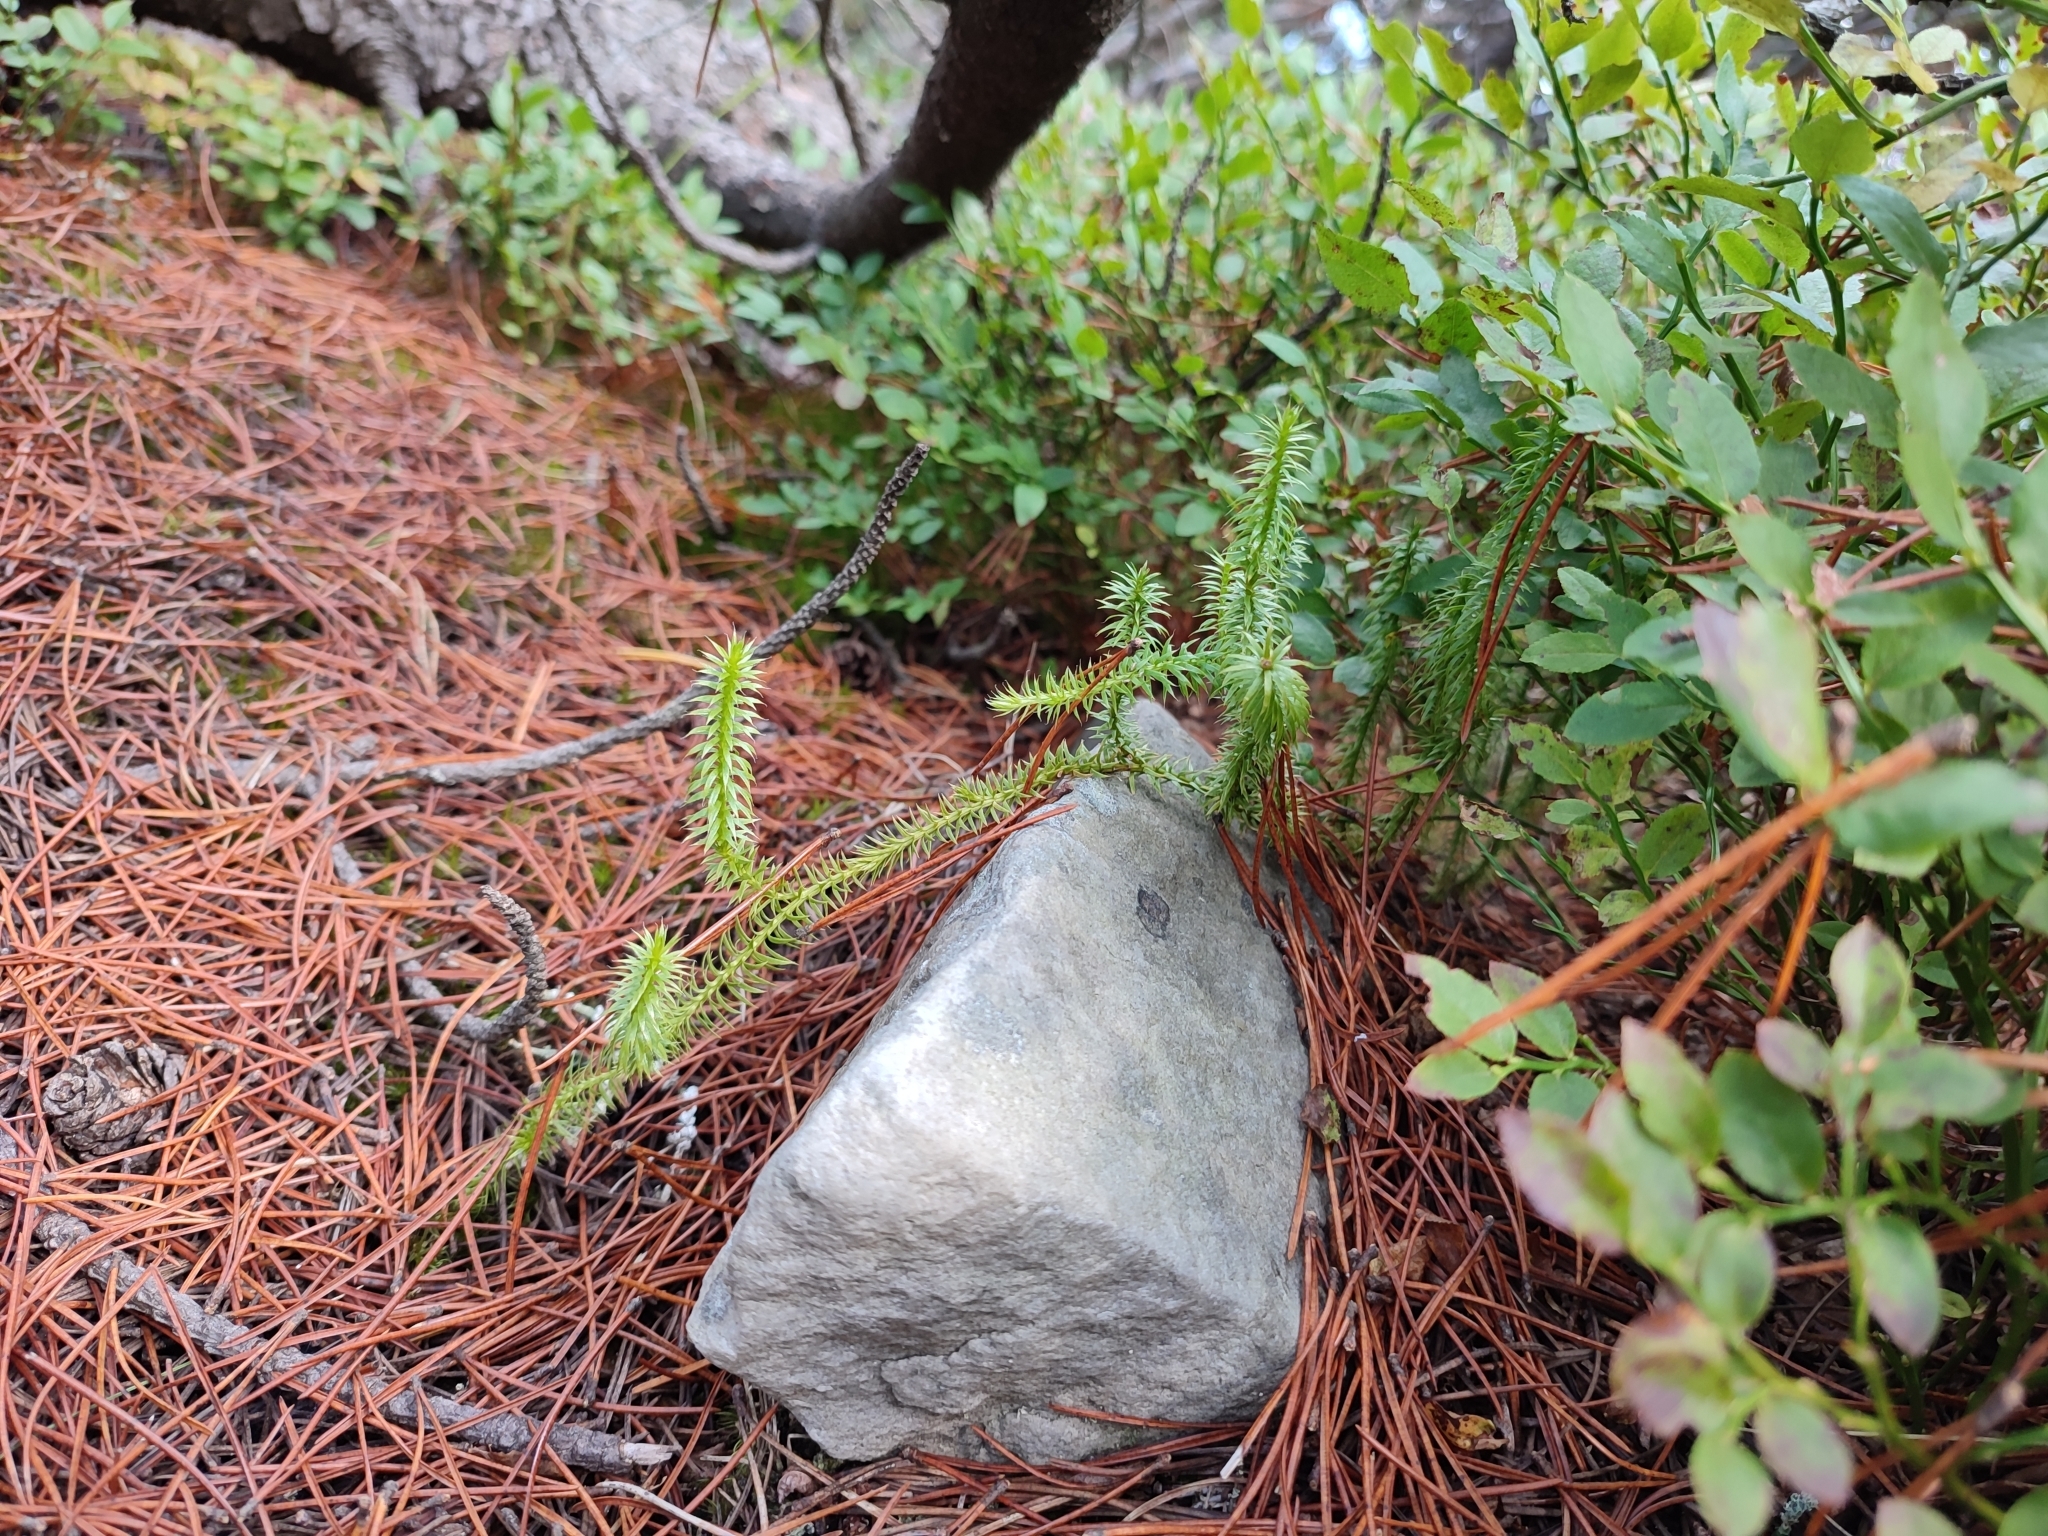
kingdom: Plantae
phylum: Tracheophyta
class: Lycopodiopsida
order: Lycopodiales
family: Lycopodiaceae
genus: Spinulum
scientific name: Spinulum annotinum
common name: Interrupted club-moss
